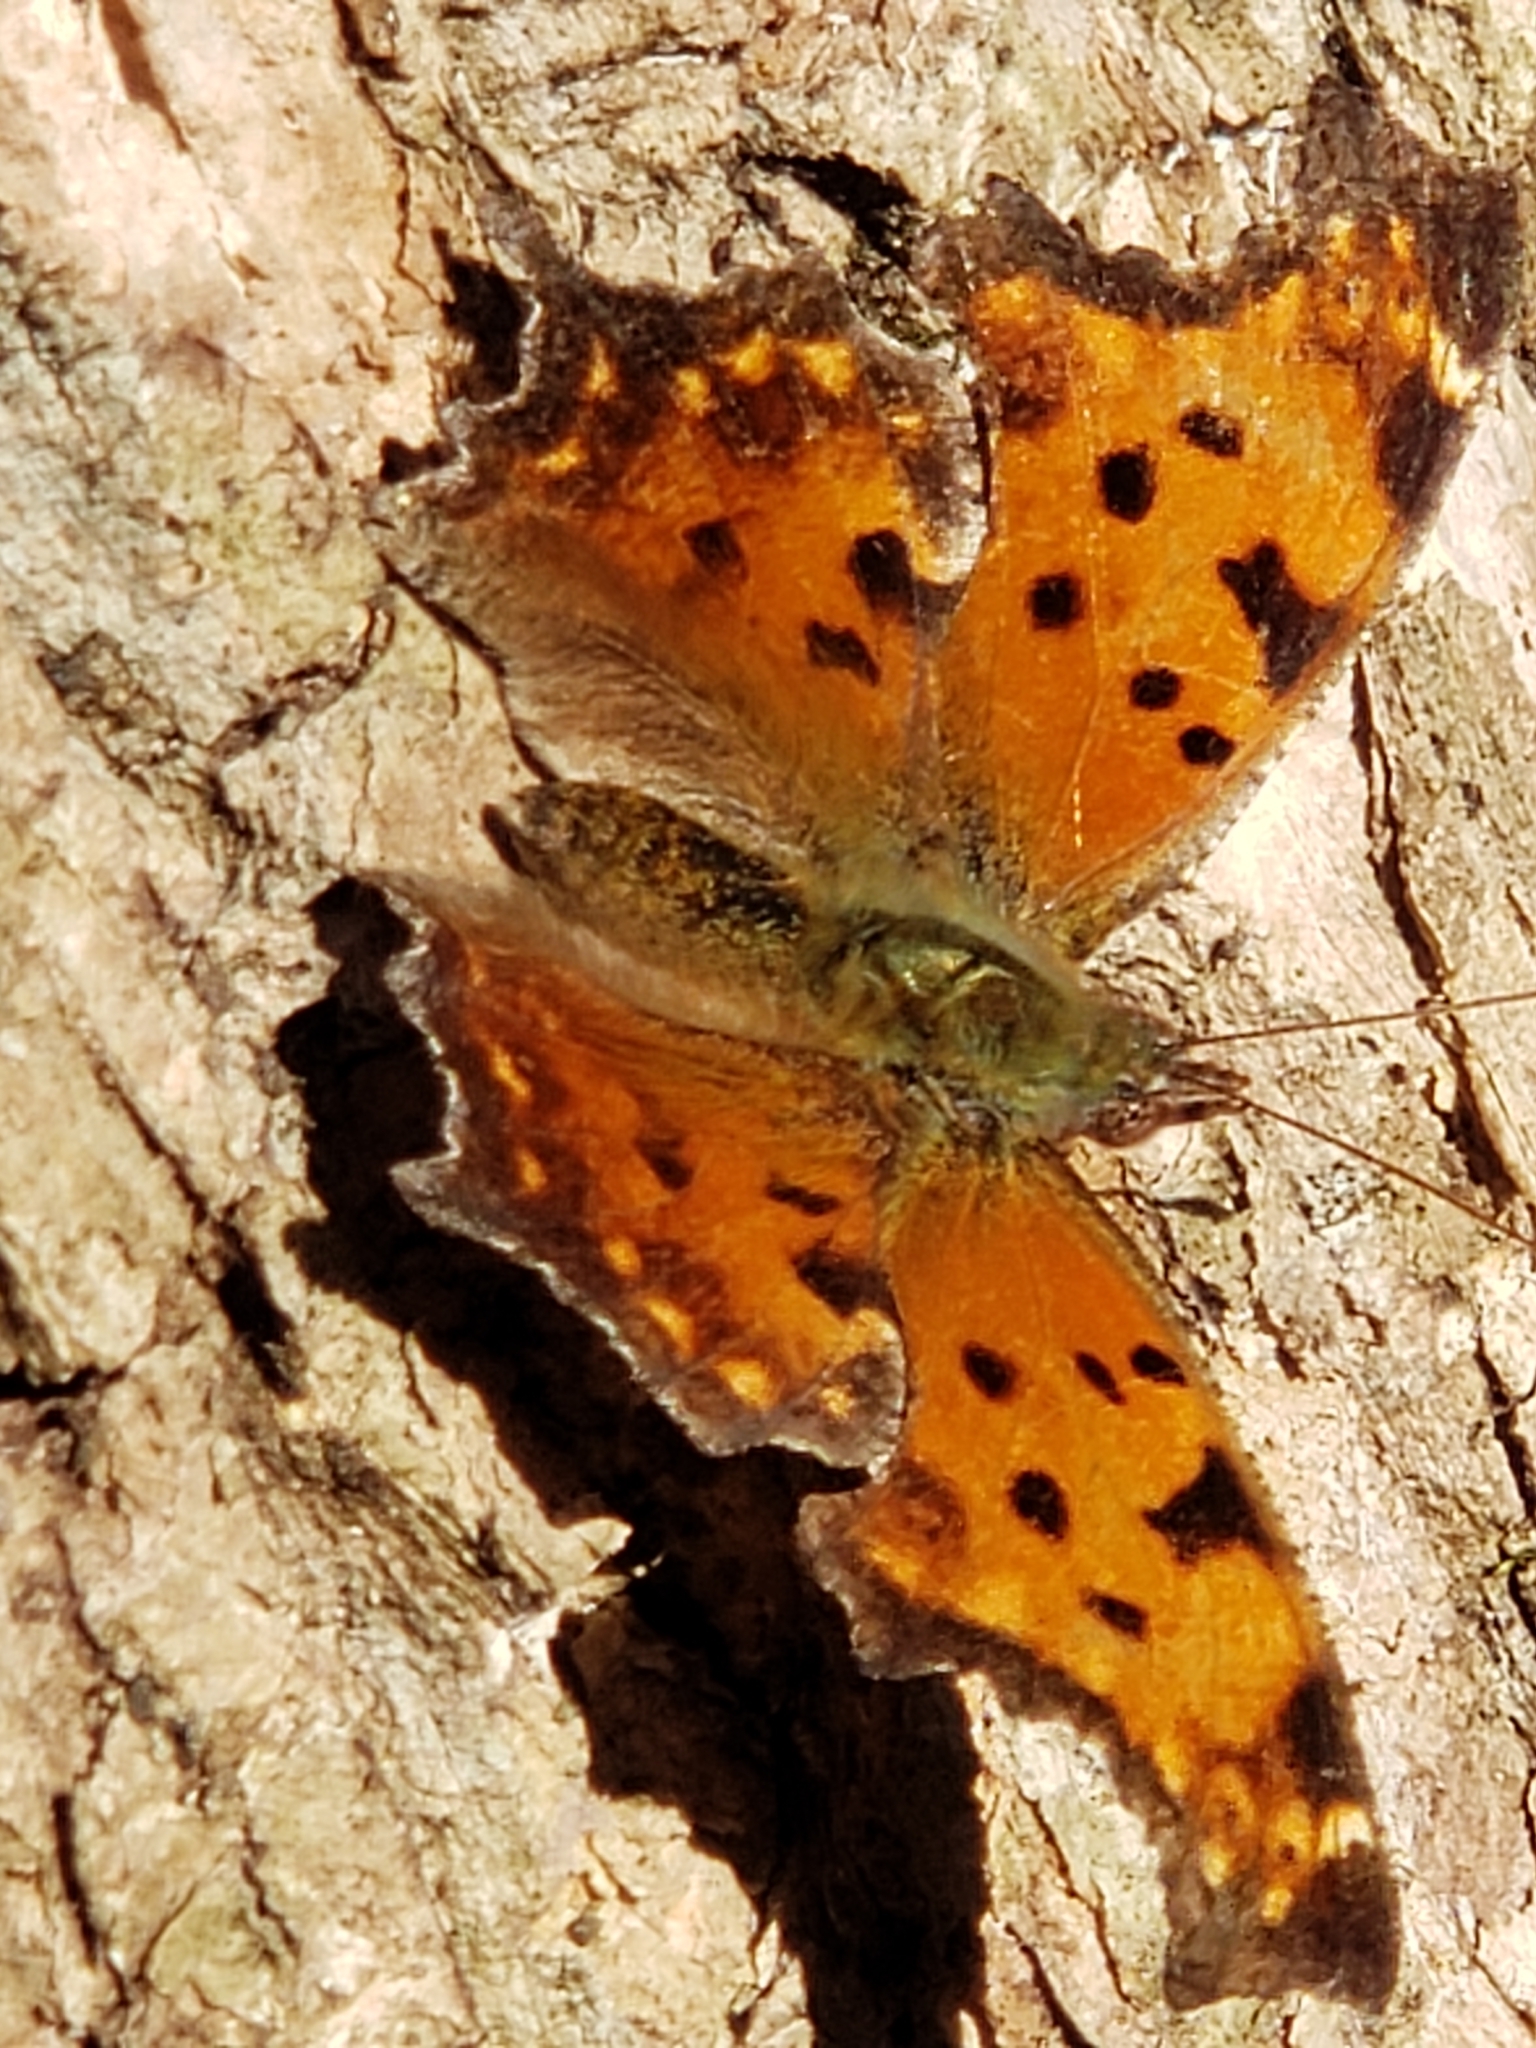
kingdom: Animalia
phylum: Arthropoda
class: Insecta
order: Lepidoptera
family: Nymphalidae
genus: Polygonia
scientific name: Polygonia comma
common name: Eastern comma
